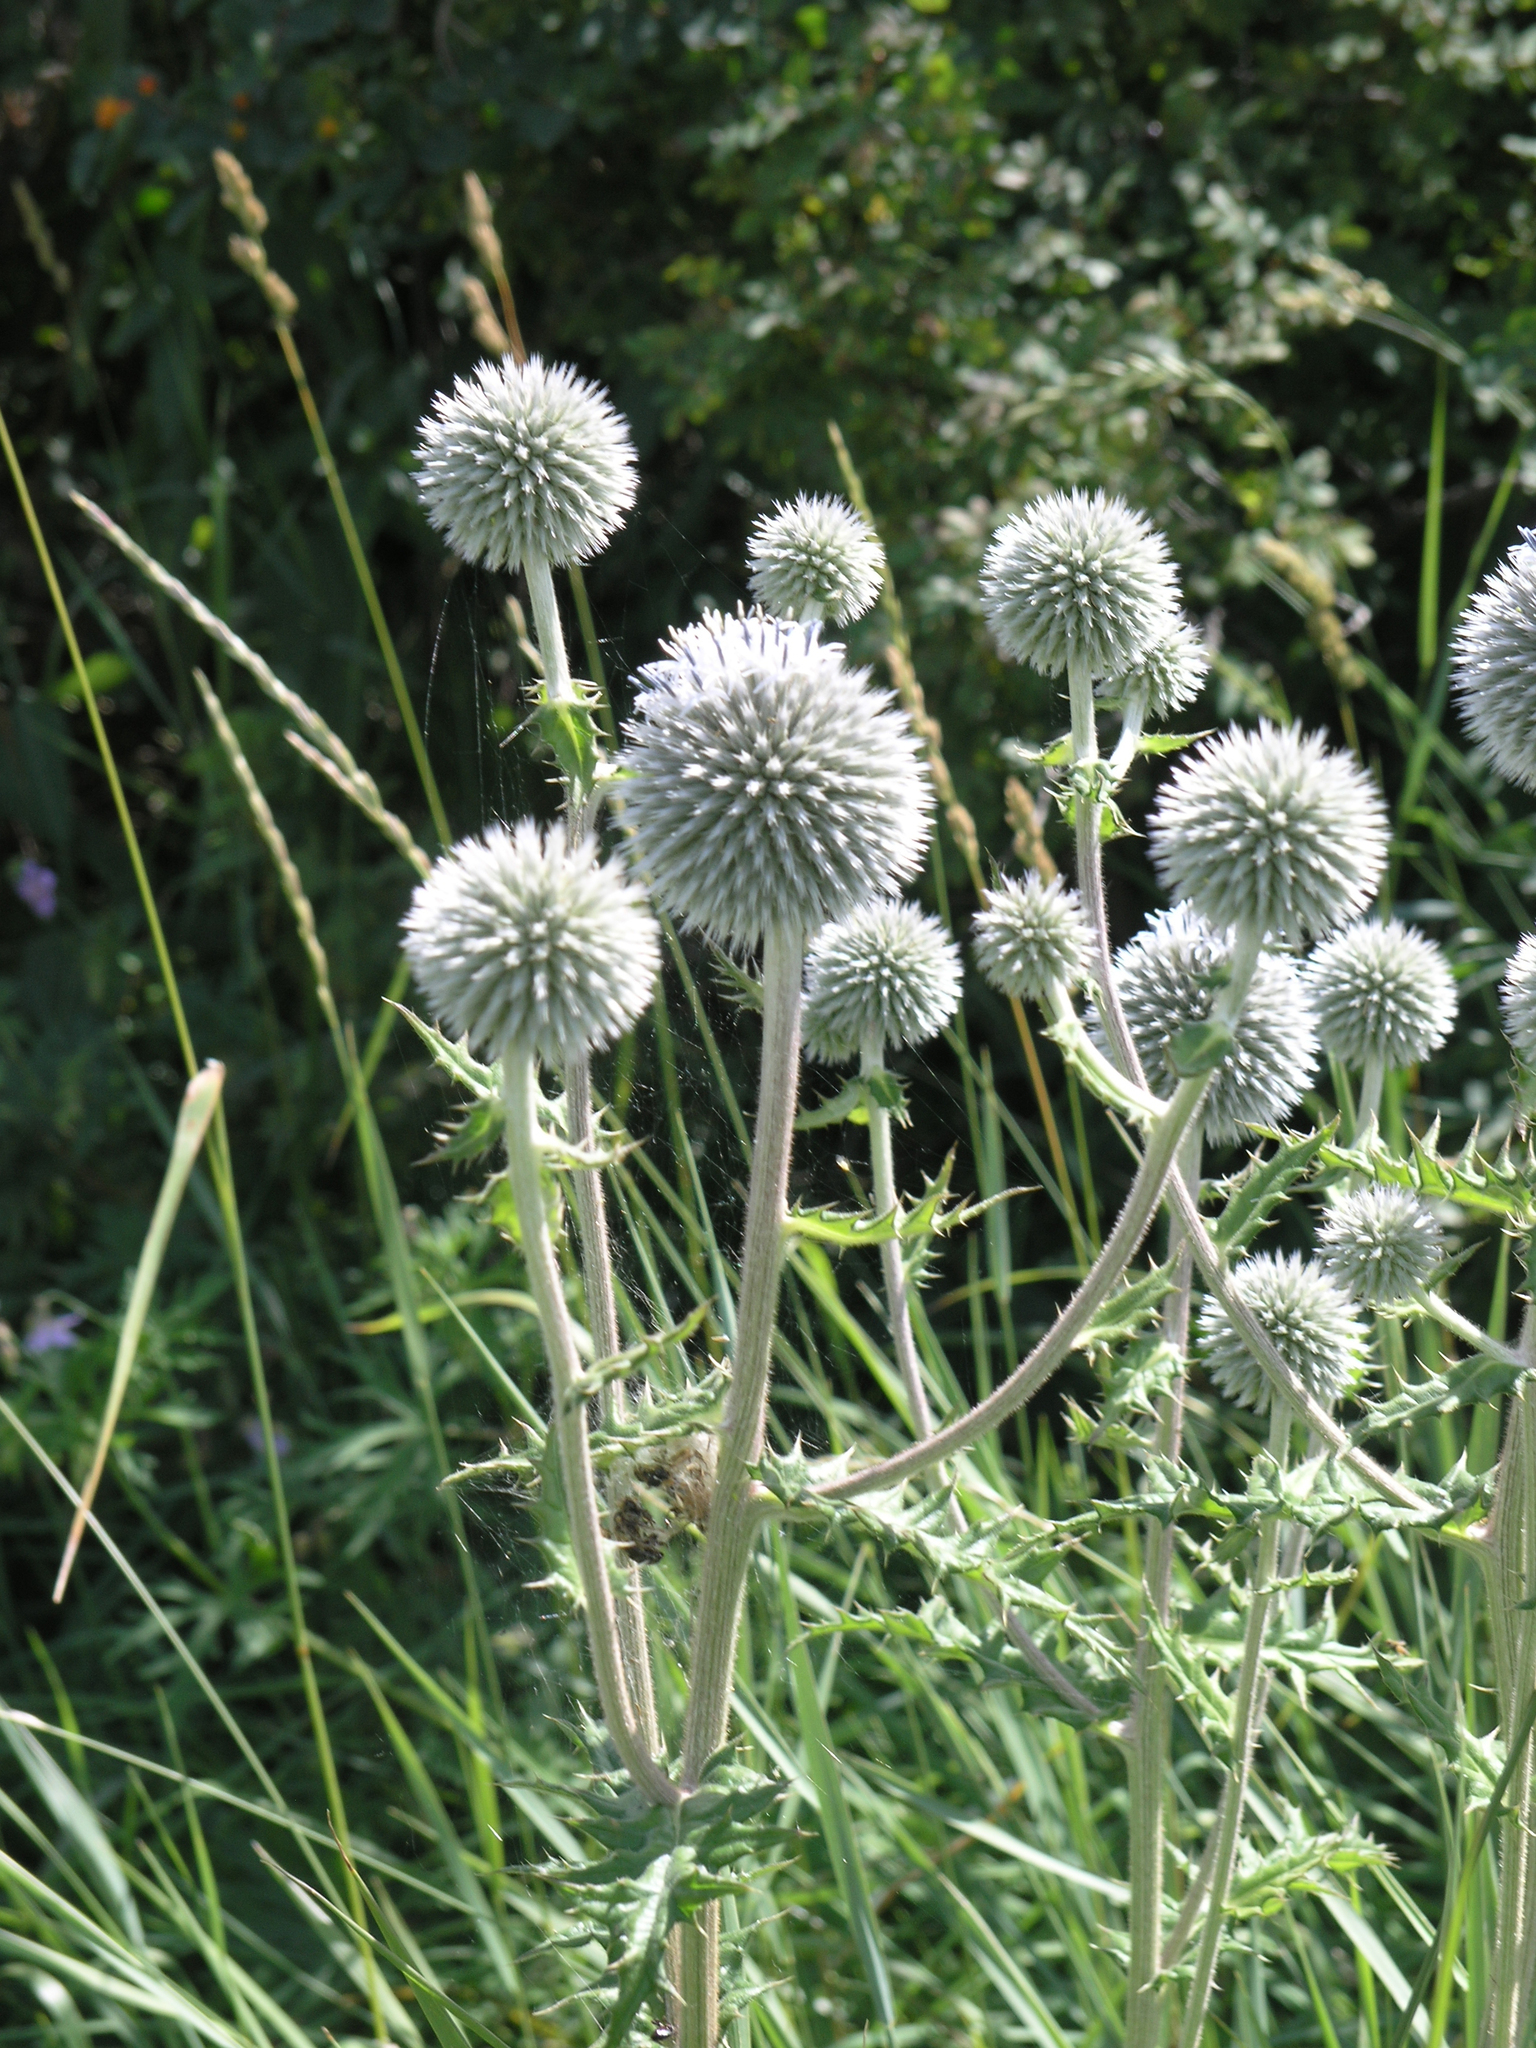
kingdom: Plantae
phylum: Tracheophyta
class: Magnoliopsida
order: Asterales
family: Asteraceae
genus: Echinops
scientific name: Echinops sphaerocephalus
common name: Glandular globe-thistle
